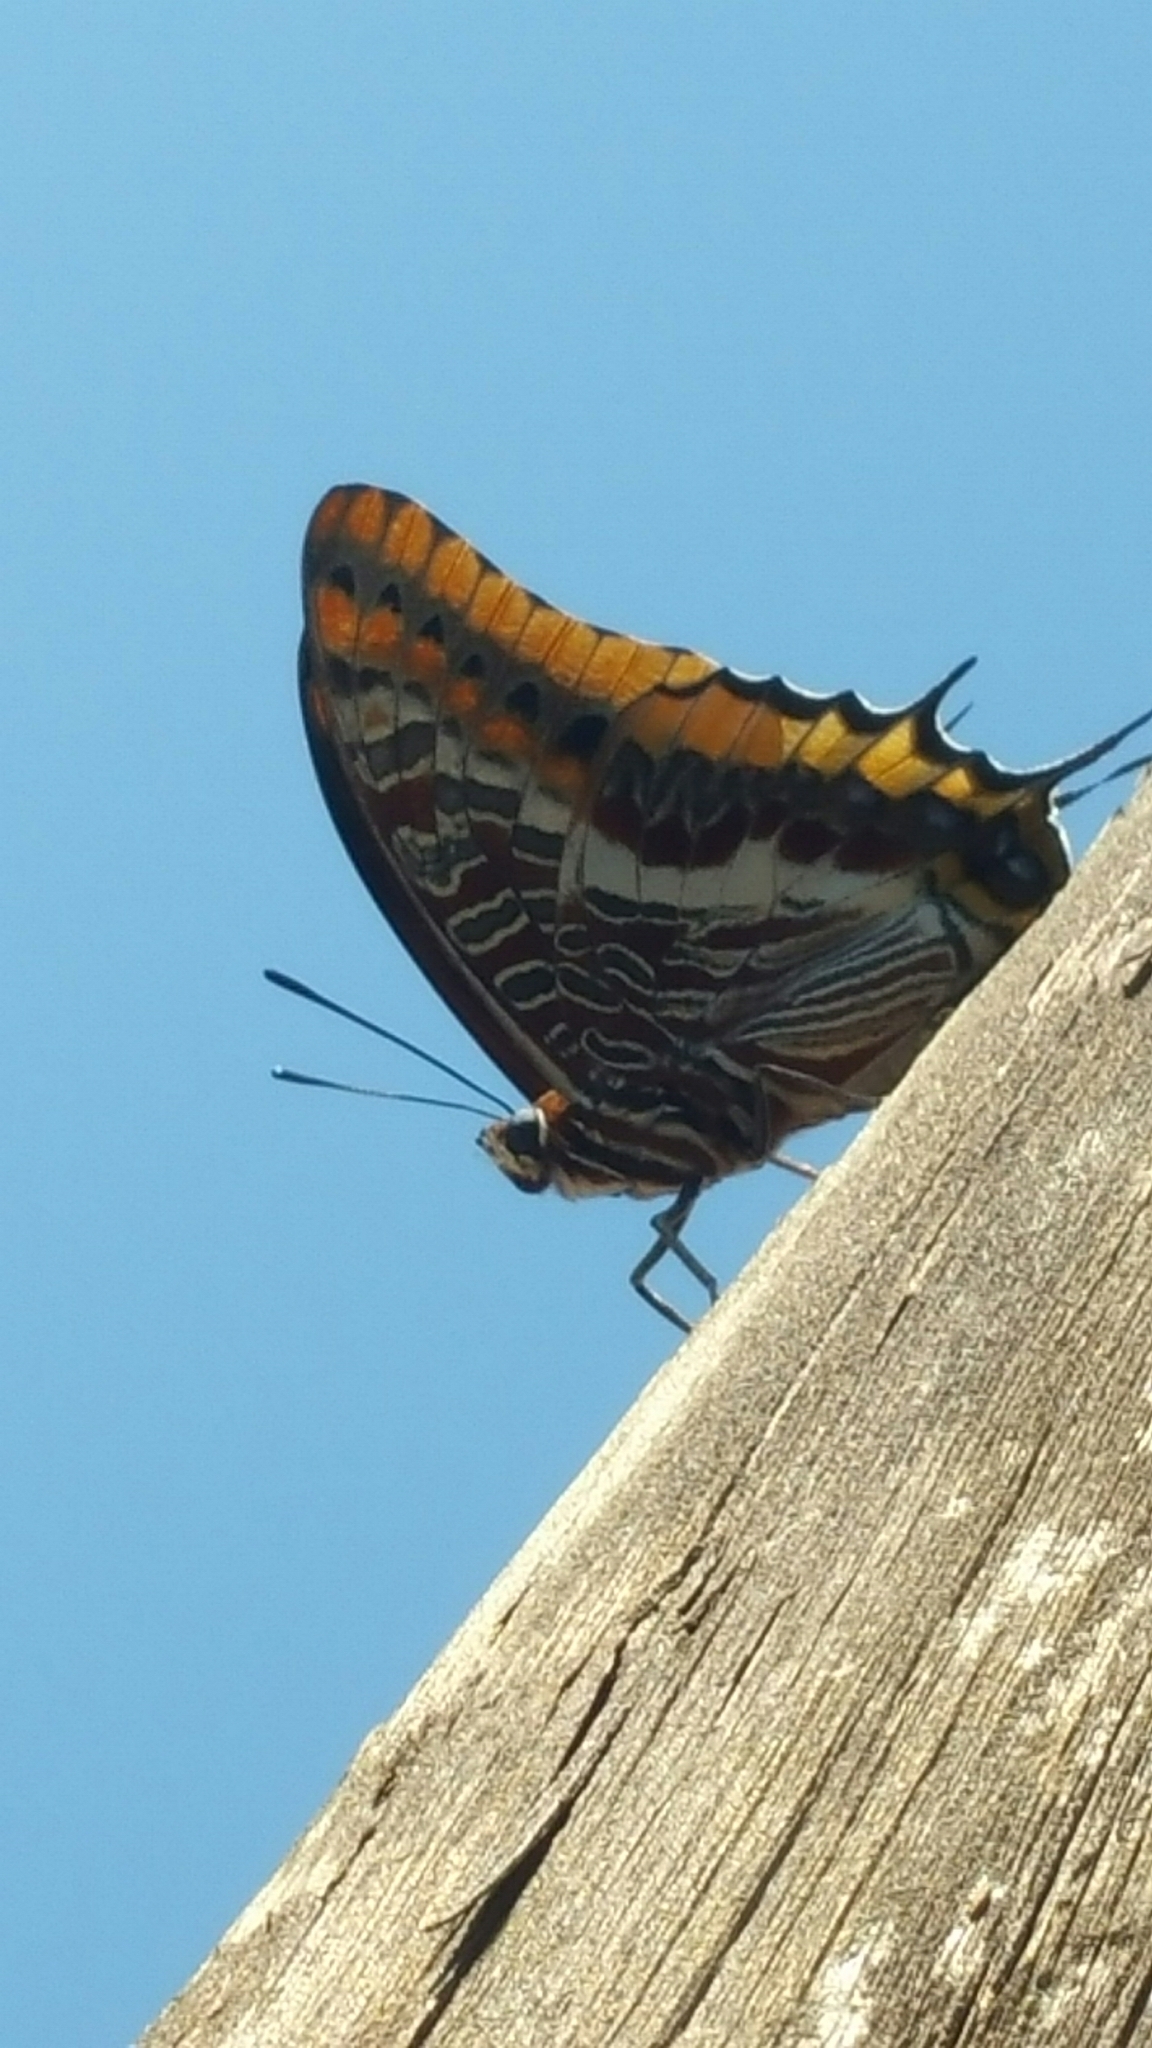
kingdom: Animalia
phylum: Arthropoda
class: Insecta
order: Lepidoptera
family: Nymphalidae
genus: Charaxes
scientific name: Charaxes jasius
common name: Two tailed pasha
